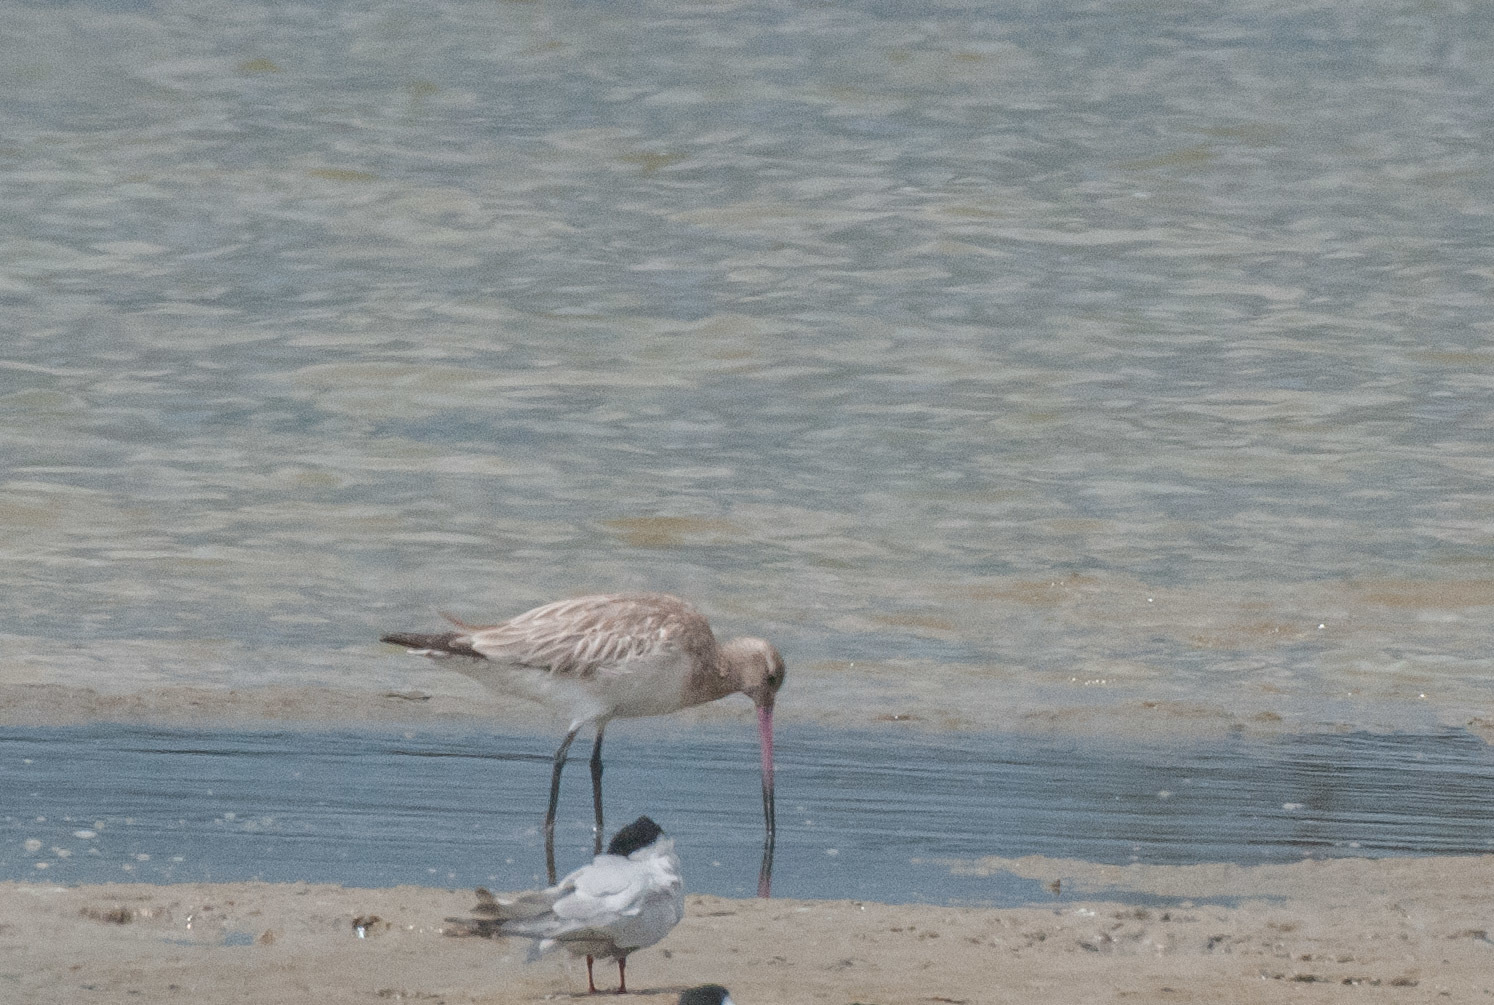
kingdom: Animalia
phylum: Chordata
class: Aves
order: Charadriiformes
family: Scolopacidae
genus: Limosa
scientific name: Limosa lapponica
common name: Bar-tailed godwit
